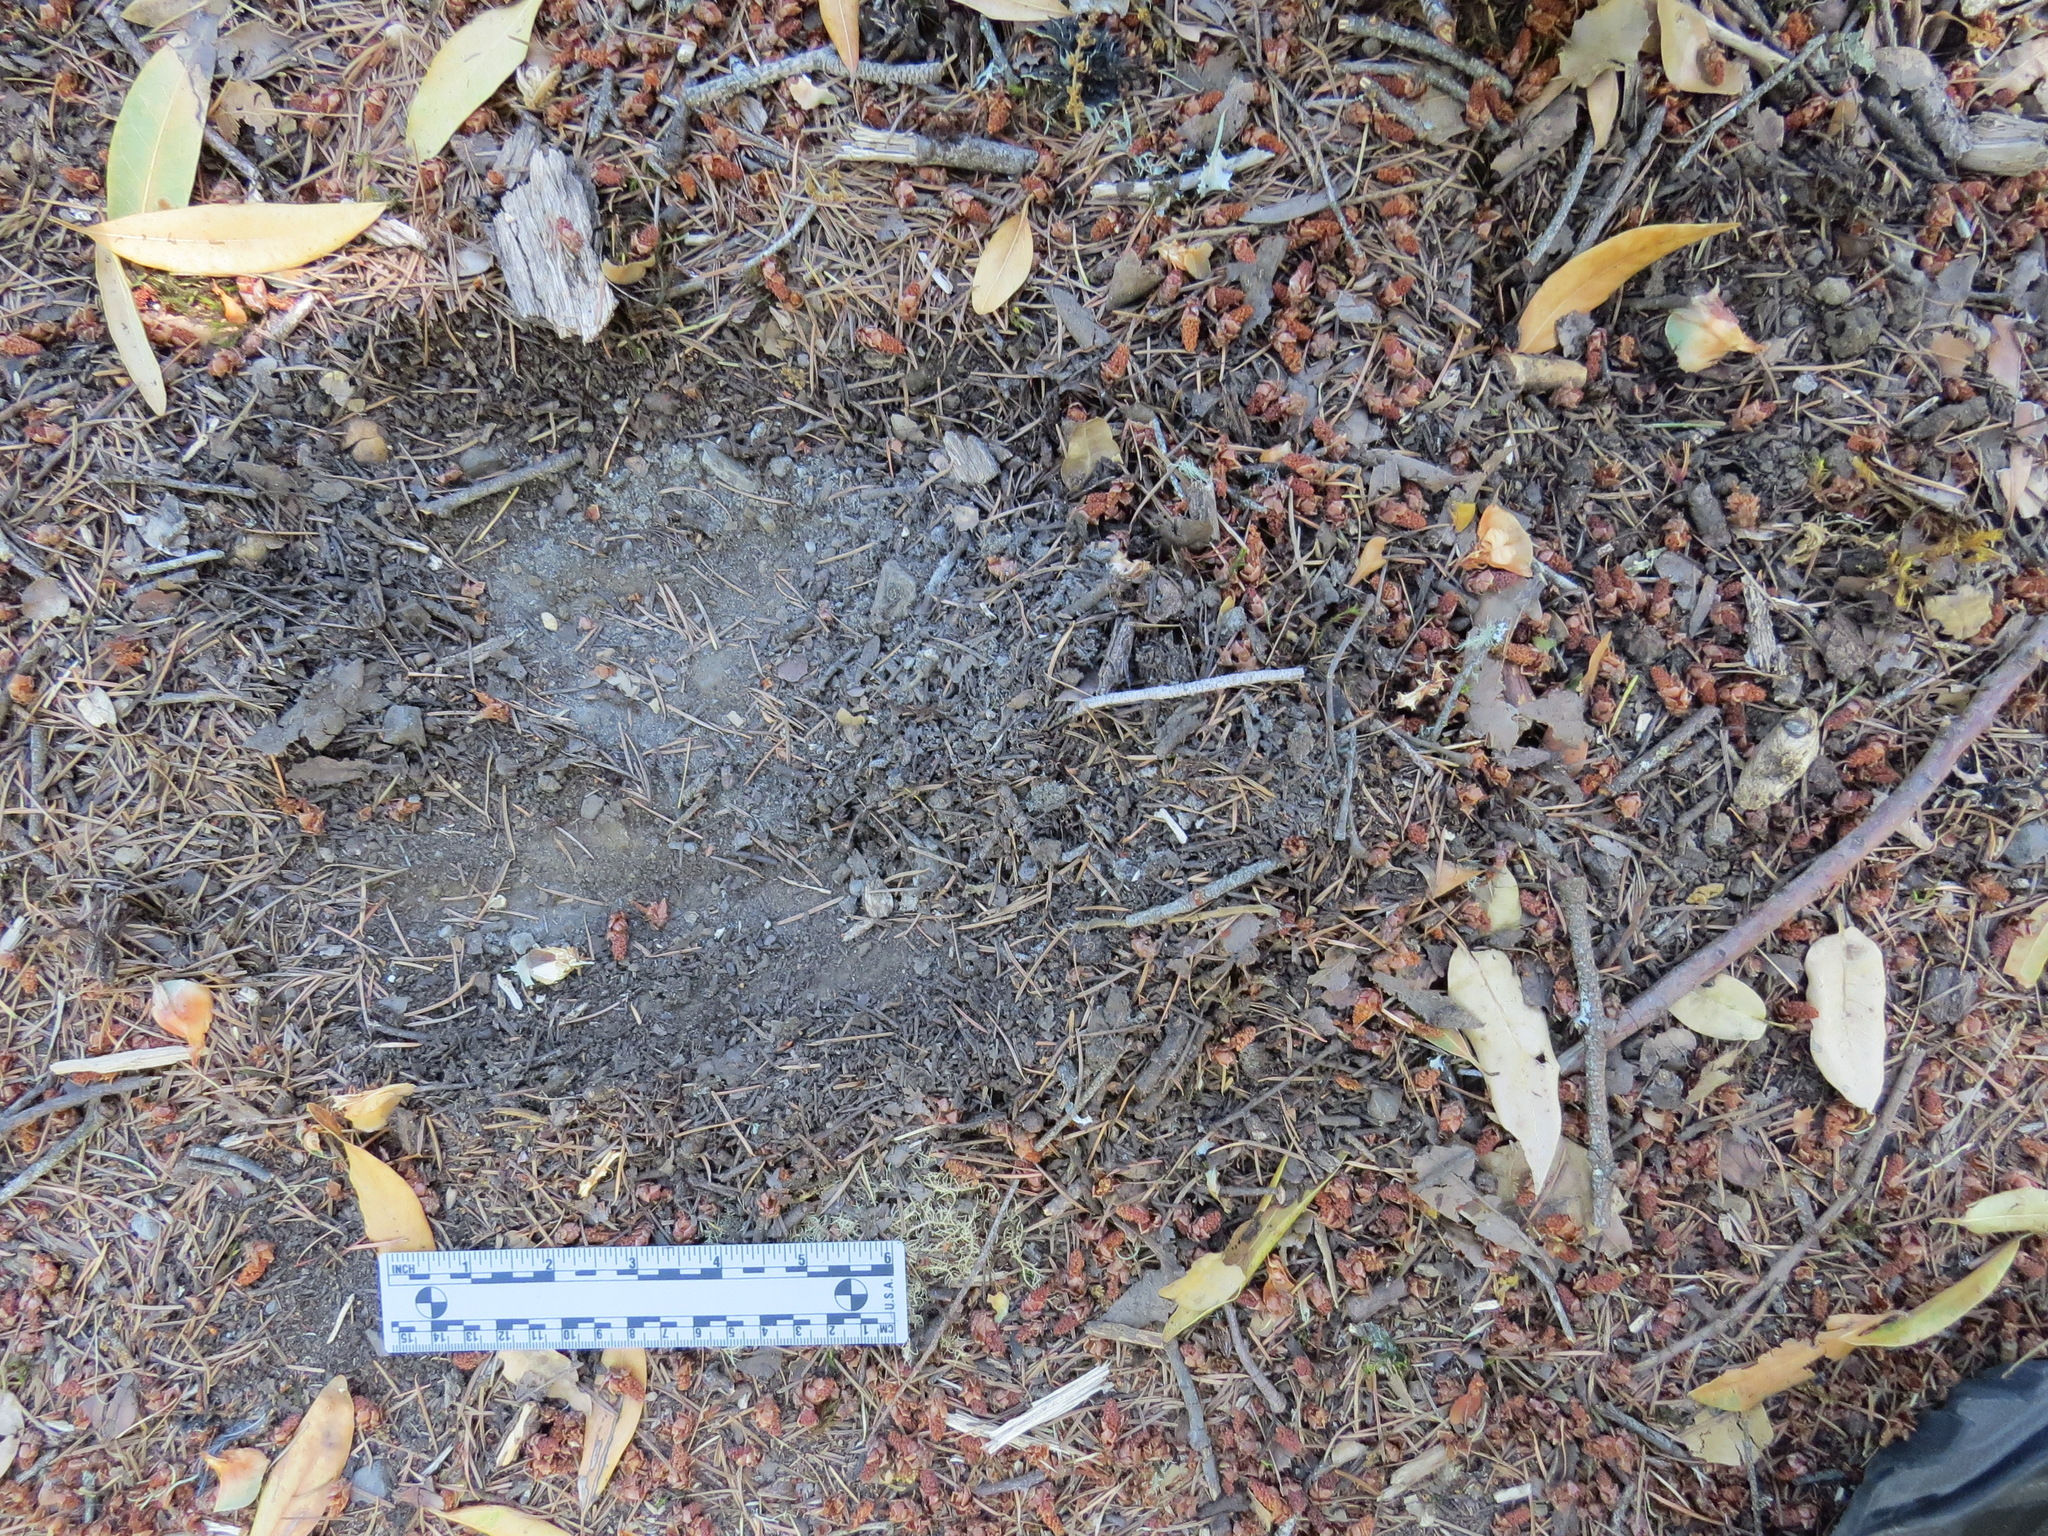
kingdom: Animalia
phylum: Chordata
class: Mammalia
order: Carnivora
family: Felidae
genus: Puma
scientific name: Puma concolor
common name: Puma
